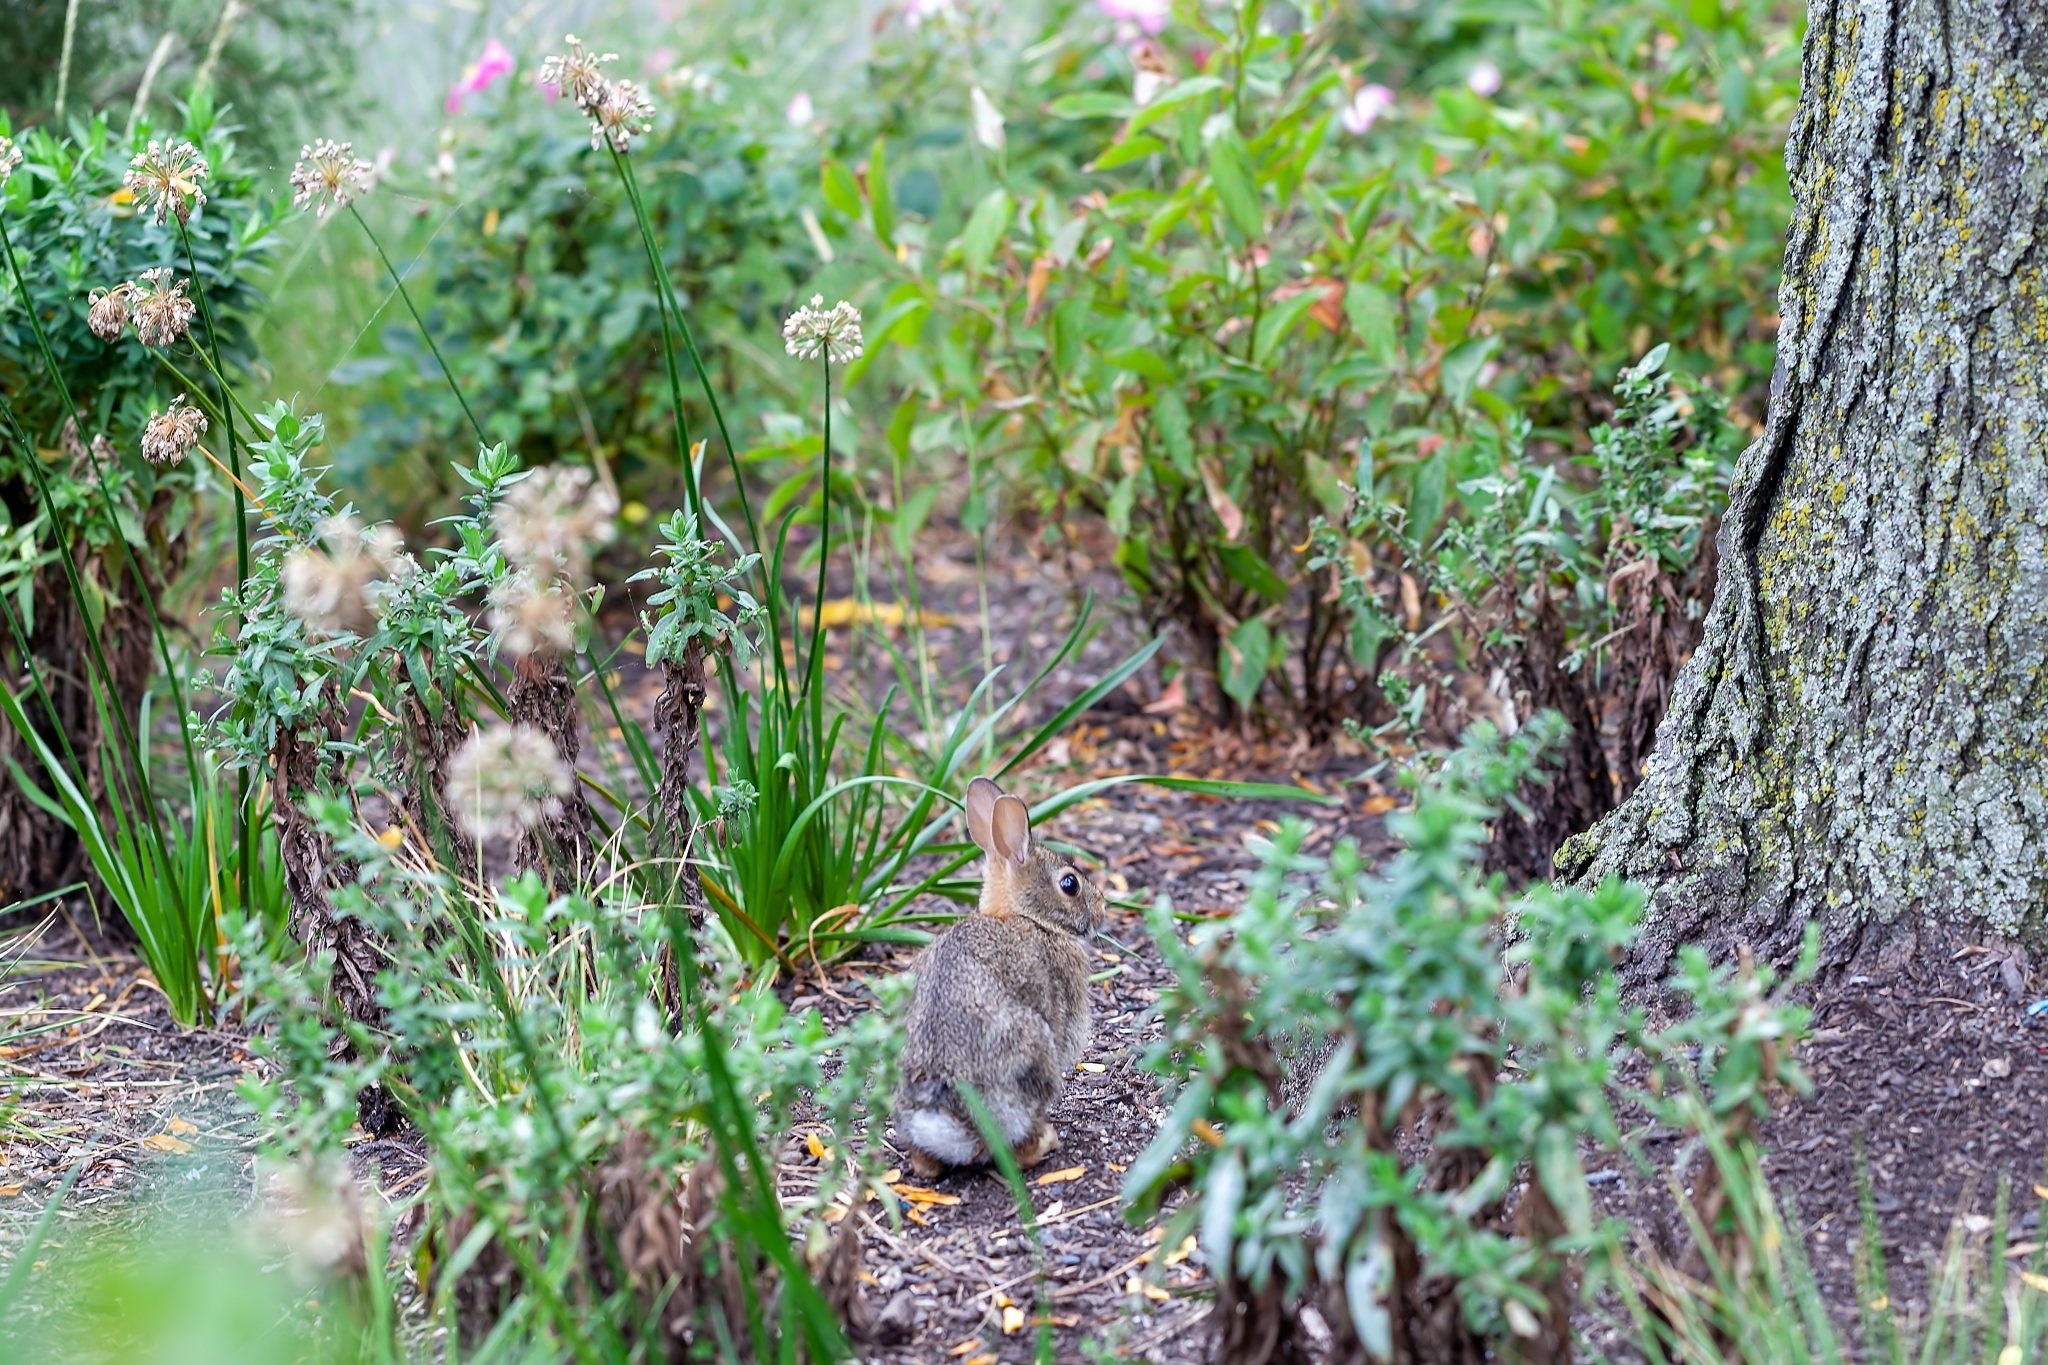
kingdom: Animalia
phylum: Chordata
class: Mammalia
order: Lagomorpha
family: Leporidae
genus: Sylvilagus
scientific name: Sylvilagus floridanus
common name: Eastern cottontail
